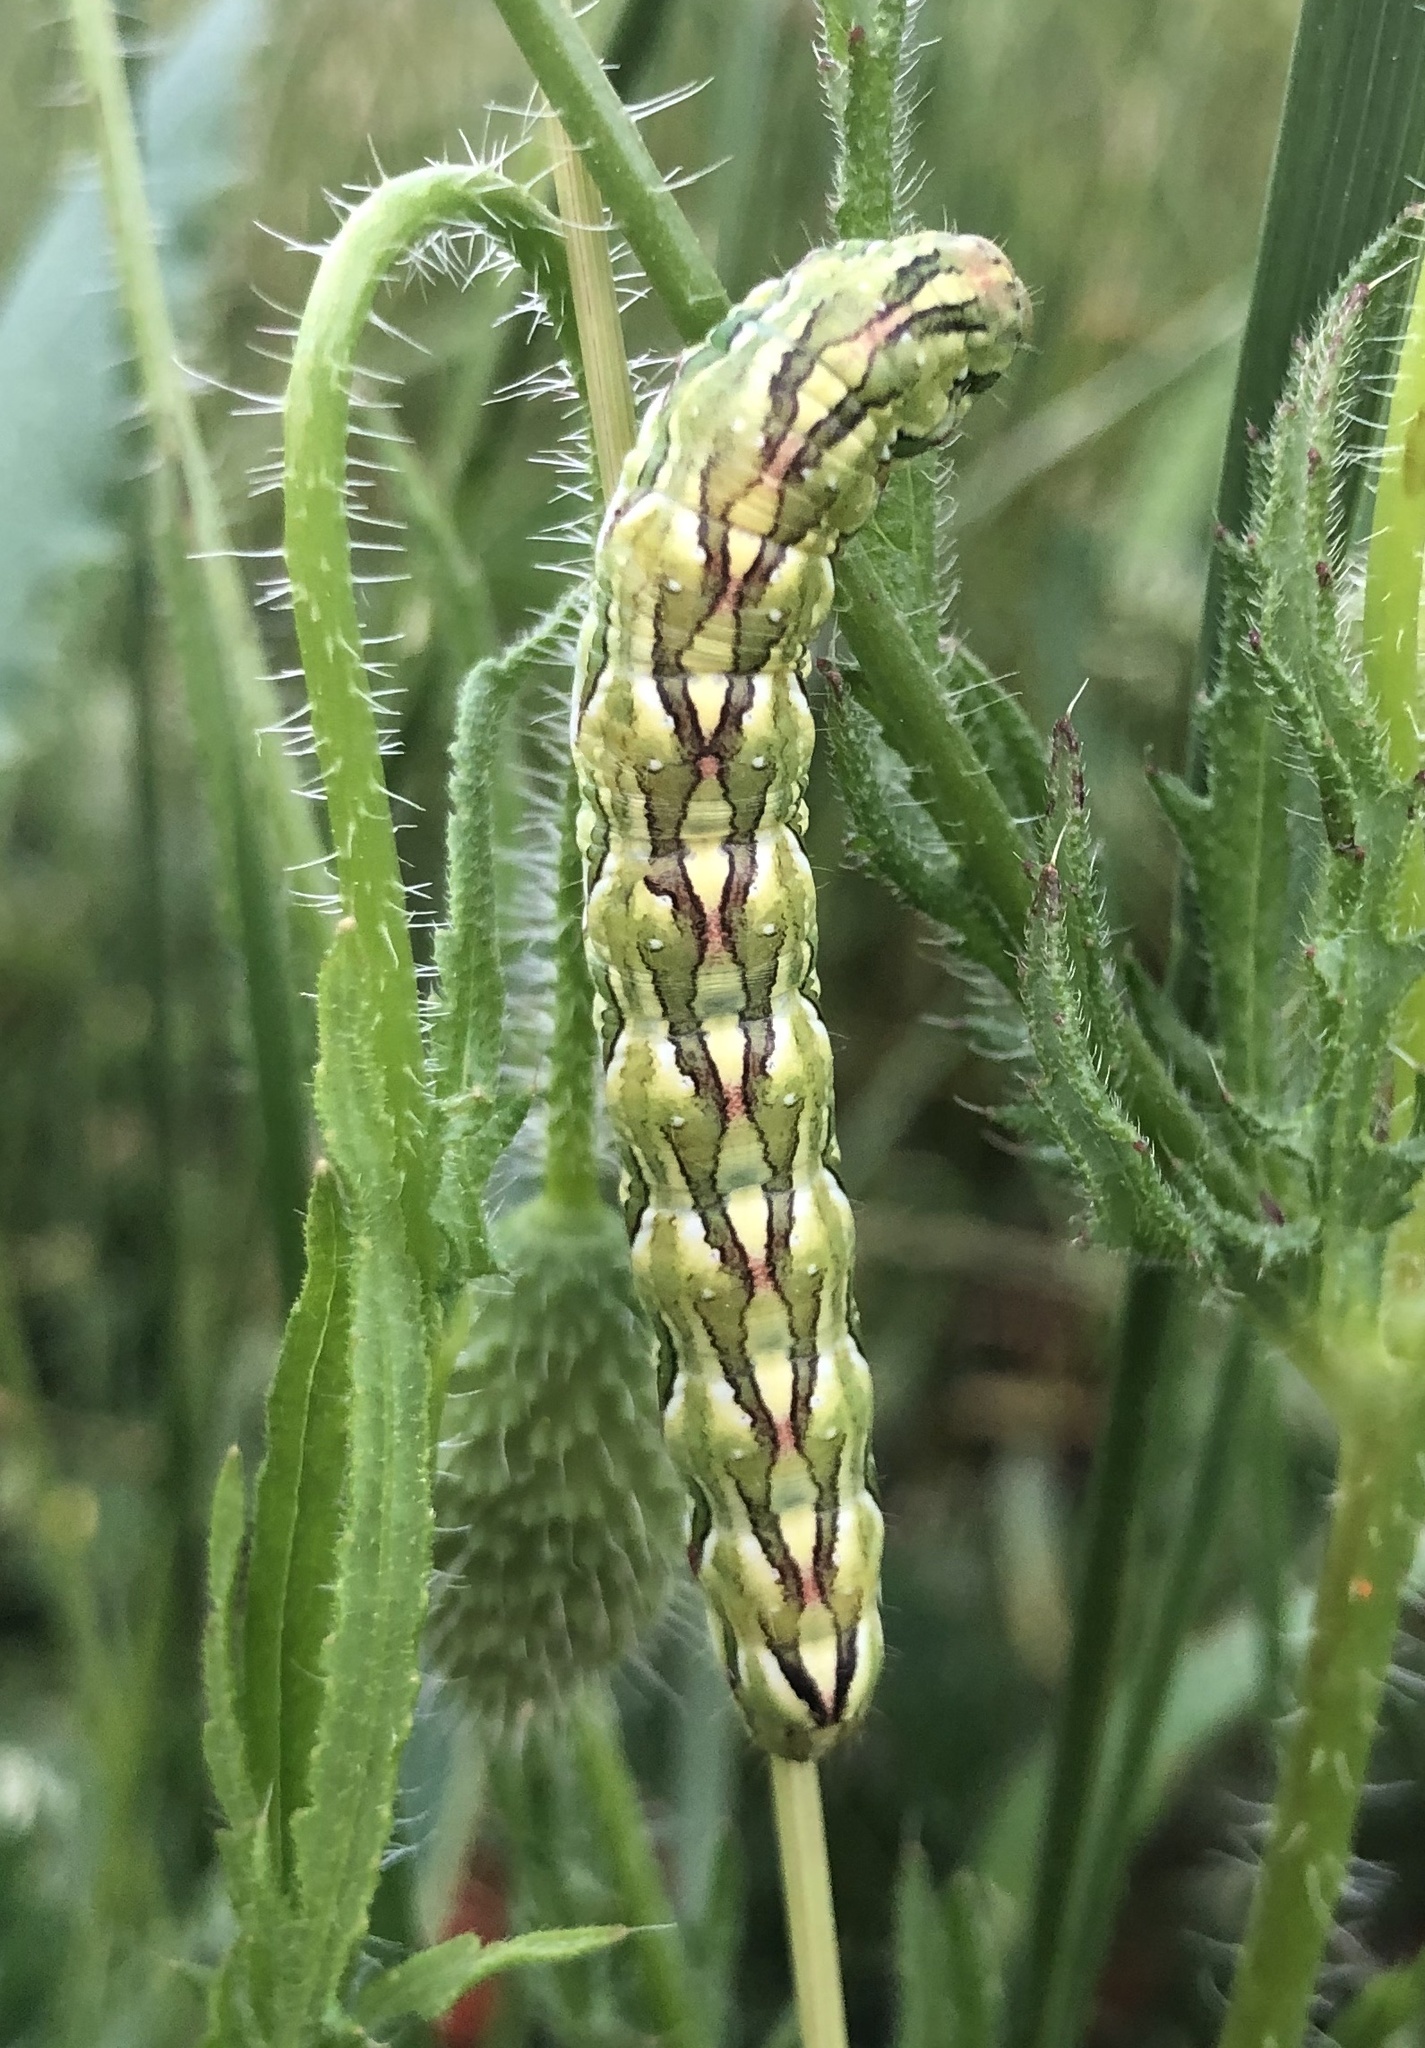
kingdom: Animalia
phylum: Arthropoda
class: Insecta
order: Lepidoptera
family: Noctuidae
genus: Cucullia
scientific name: Cucullia chamomillae
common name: Chamomile shark
